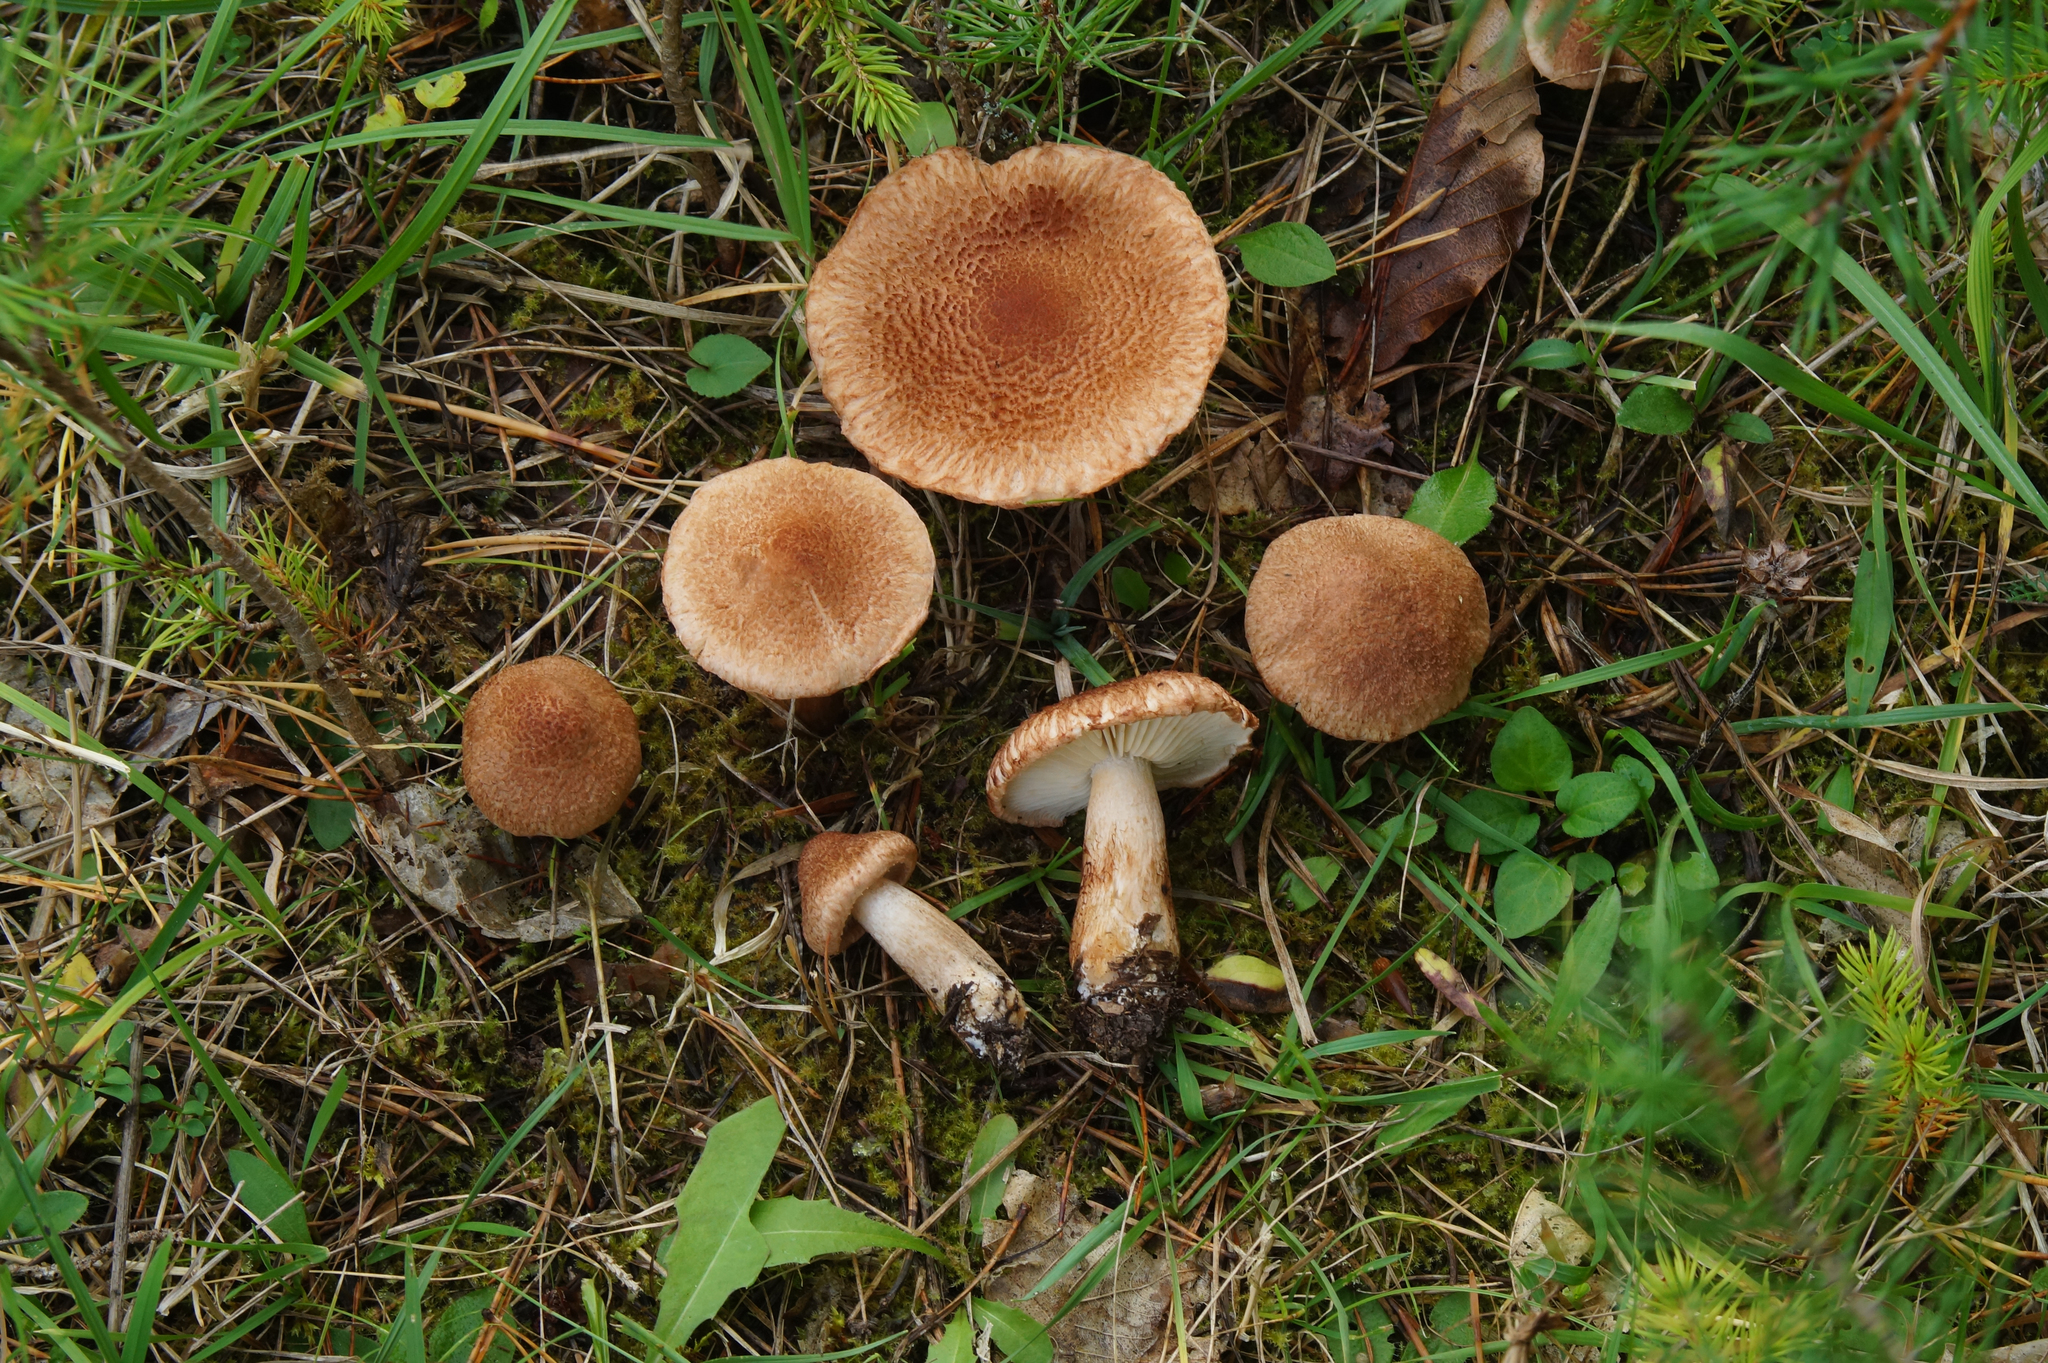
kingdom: Fungi
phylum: Basidiomycota
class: Agaricomycetes
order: Agaricales
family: Tricholomataceae
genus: Tricholoma
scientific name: Tricholoma vaccinum
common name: Scaly knight
